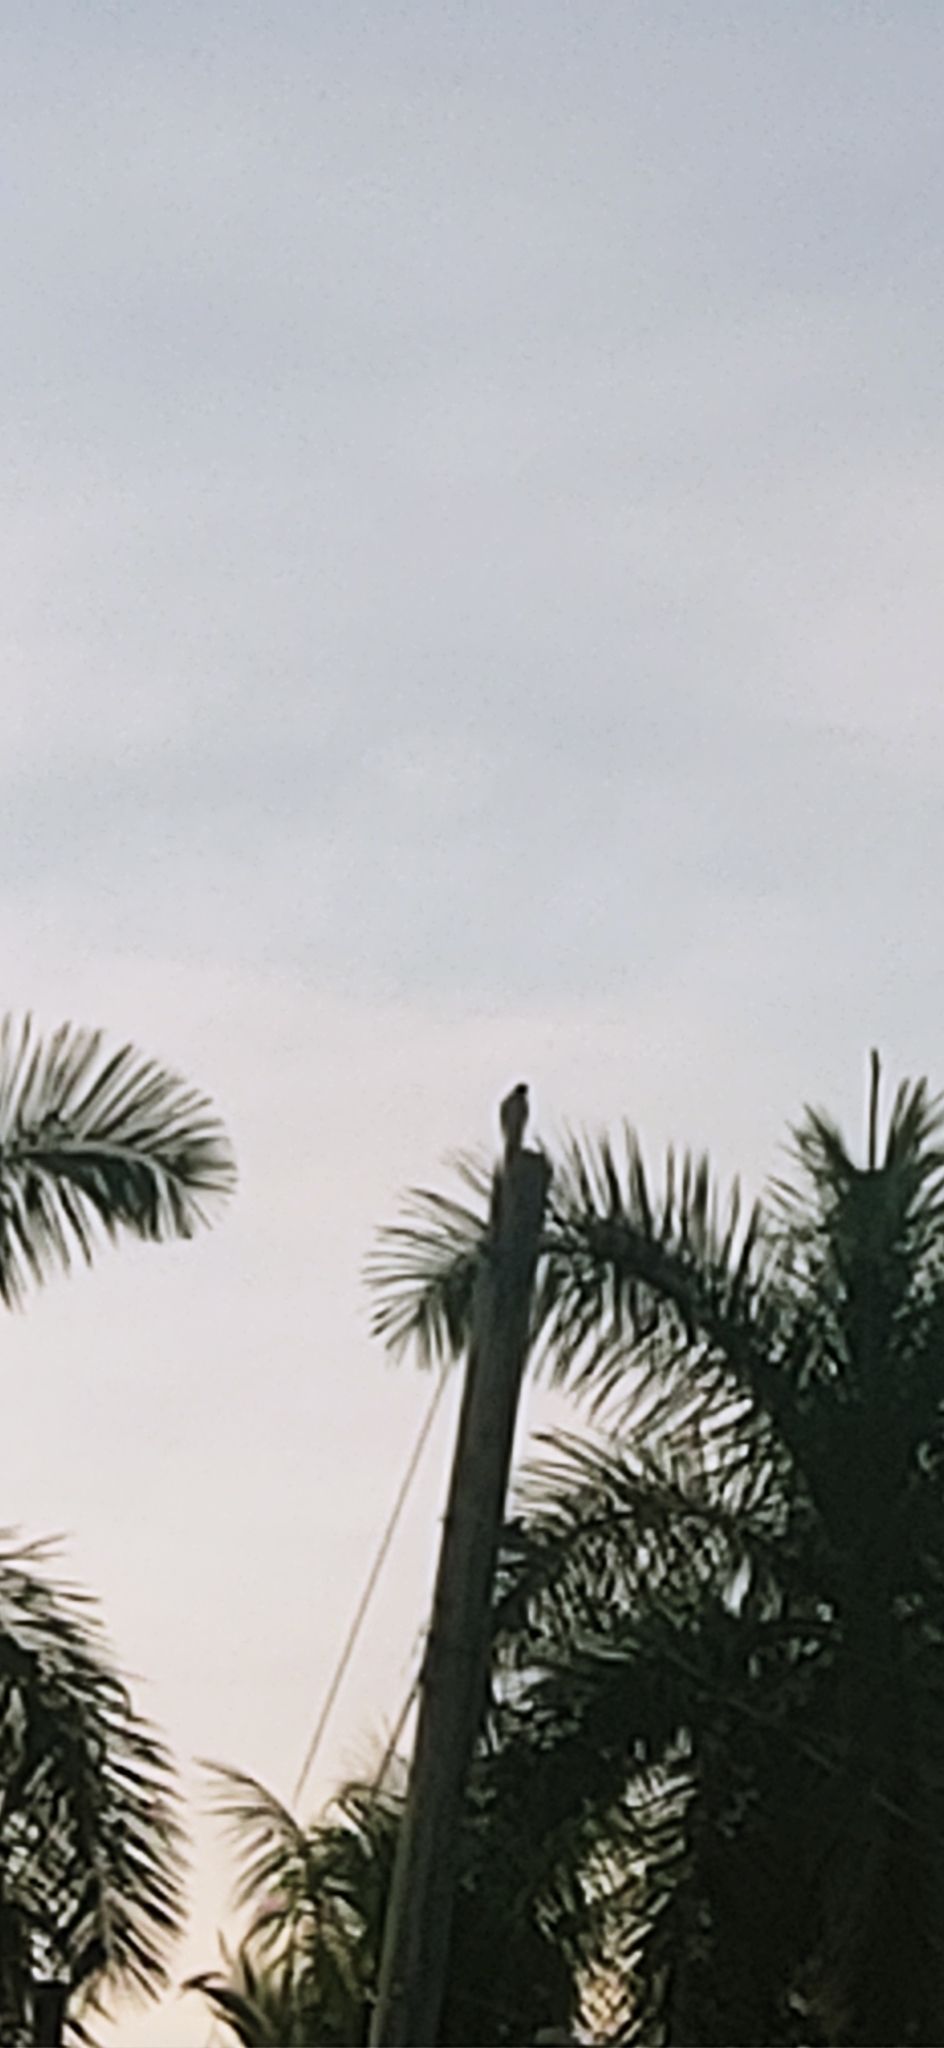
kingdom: Animalia
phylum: Chordata
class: Aves
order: Accipitriformes
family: Accipitridae
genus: Accipiter
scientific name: Accipiter cooperii
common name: Cooper's hawk
